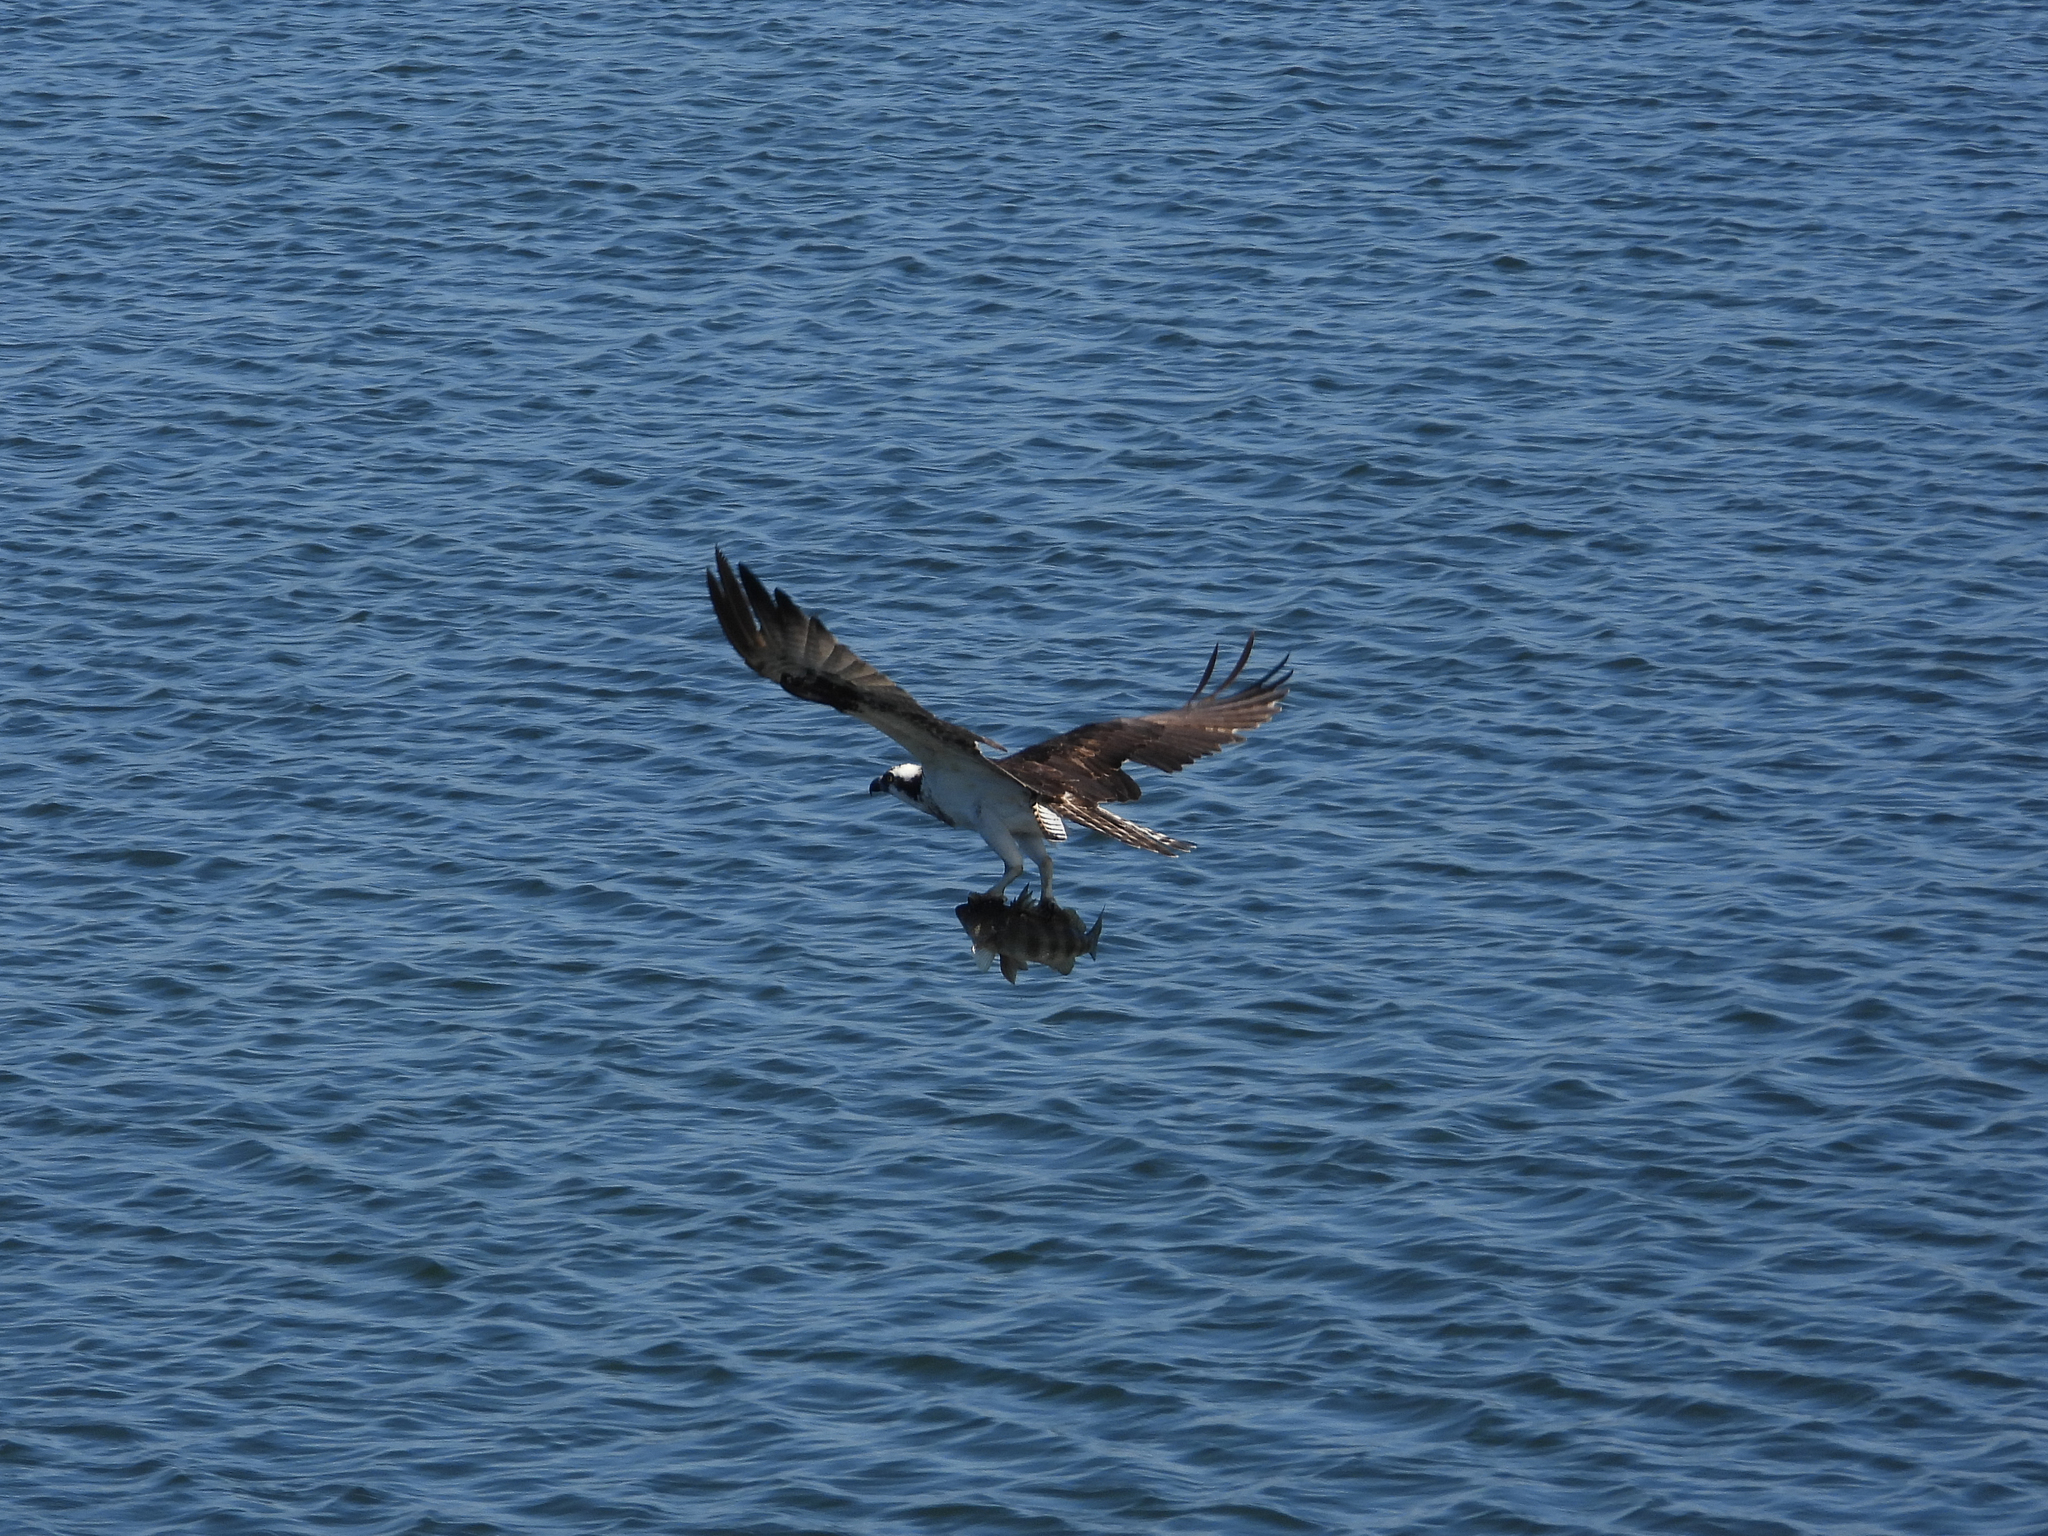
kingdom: Animalia
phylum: Chordata
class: Aves
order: Accipitriformes
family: Pandionidae
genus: Pandion
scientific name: Pandion haliaetus
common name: Osprey
